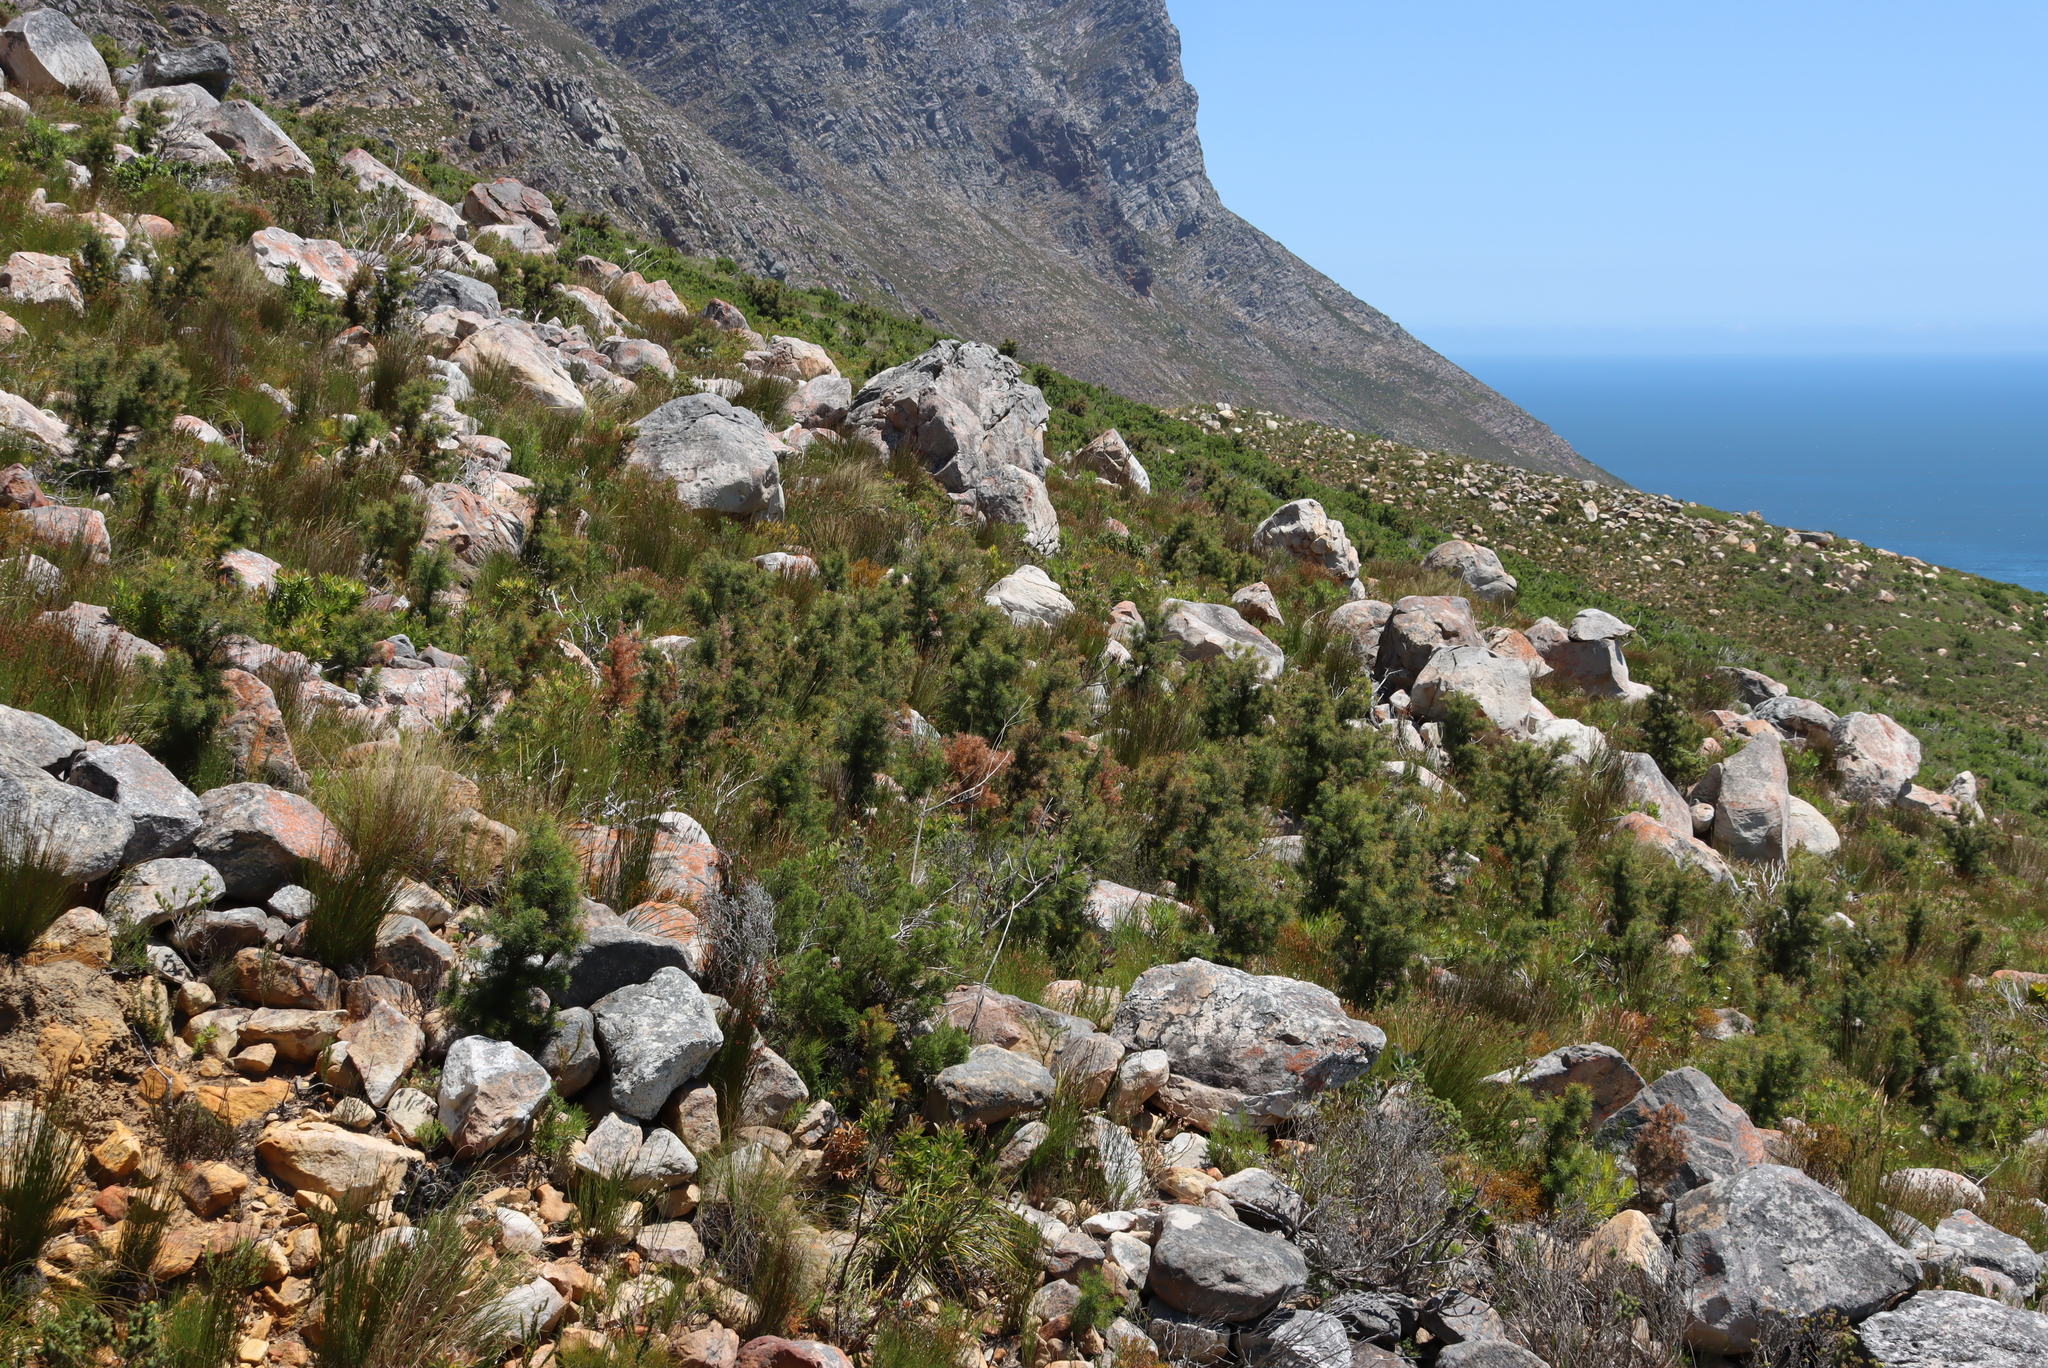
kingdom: Plantae
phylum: Tracheophyta
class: Magnoliopsida
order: Proteales
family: Proteaceae
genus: Hakea
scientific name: Hakea sericea
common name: Needle bush
